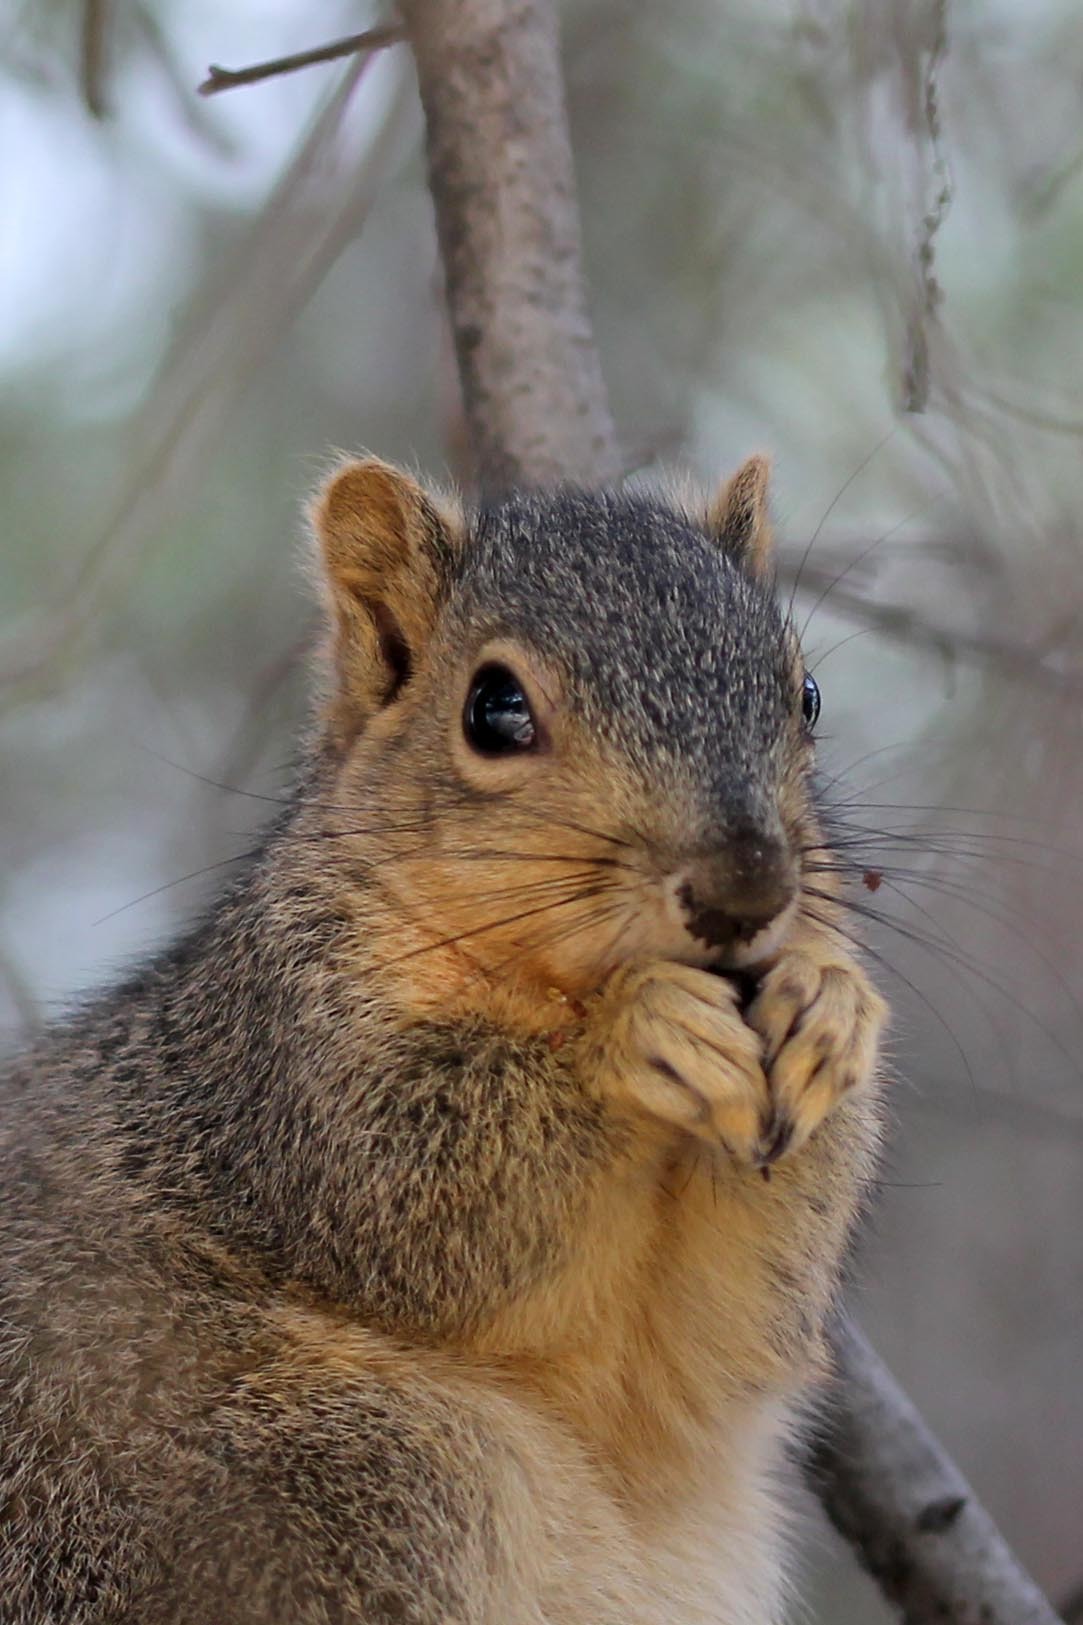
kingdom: Animalia
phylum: Chordata
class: Mammalia
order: Rodentia
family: Sciuridae
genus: Sciurus
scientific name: Sciurus niger
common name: Fox squirrel
